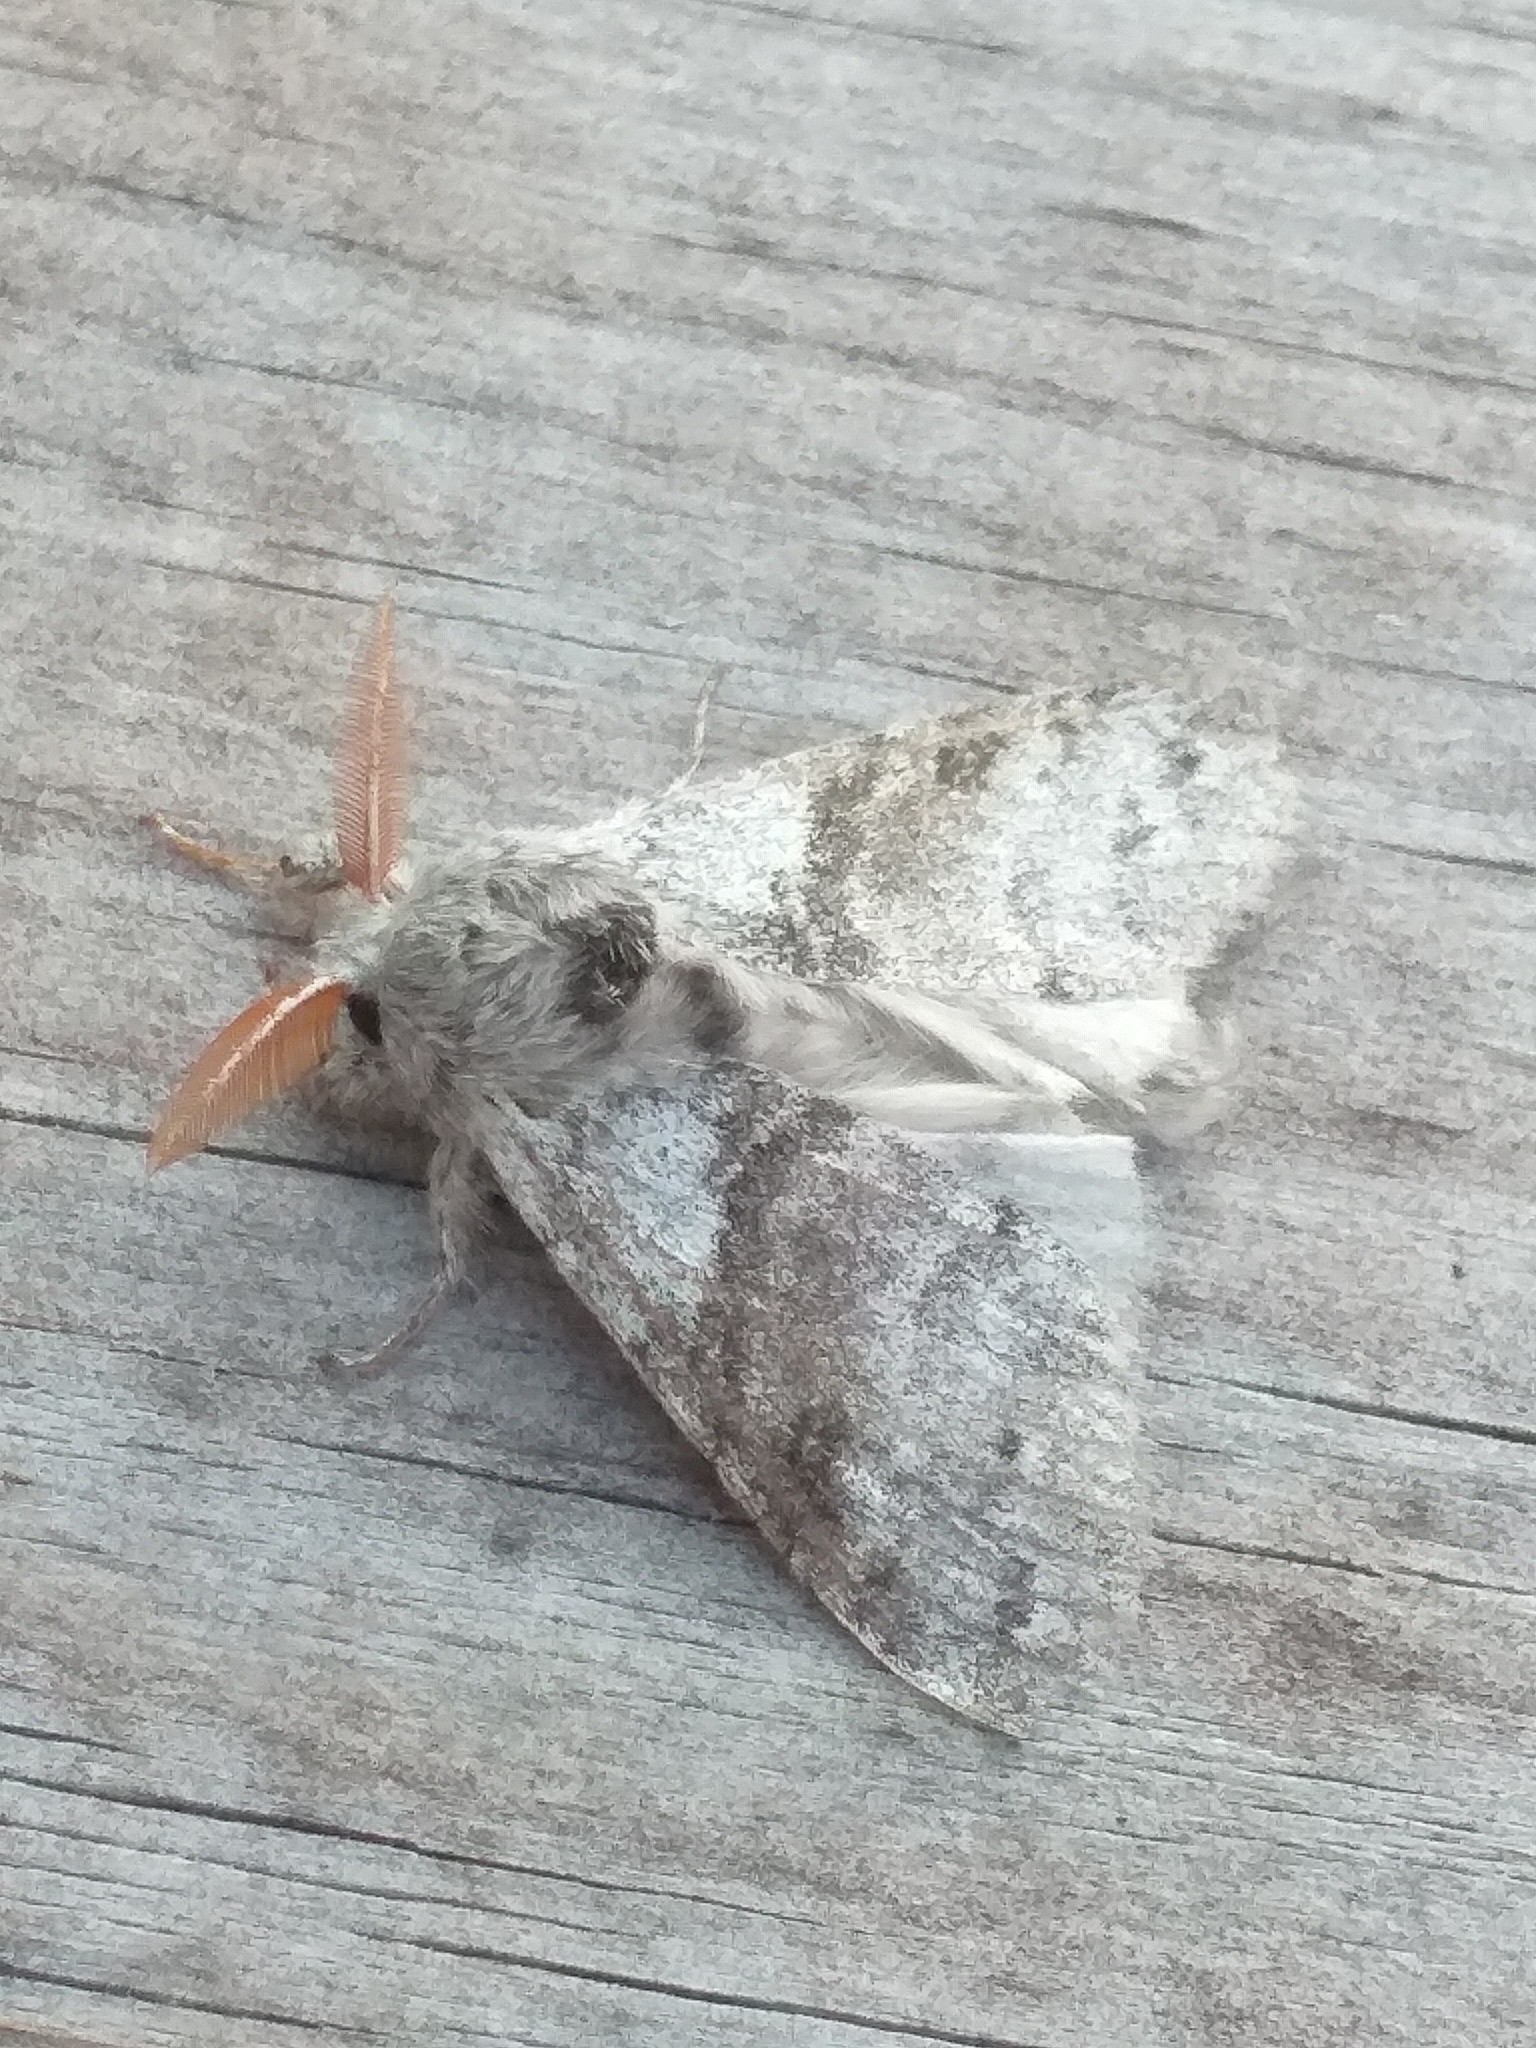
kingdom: Animalia
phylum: Arthropoda
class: Insecta
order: Lepidoptera
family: Erebidae
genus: Calliteara
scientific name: Calliteara pudibunda
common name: Pale tussock
